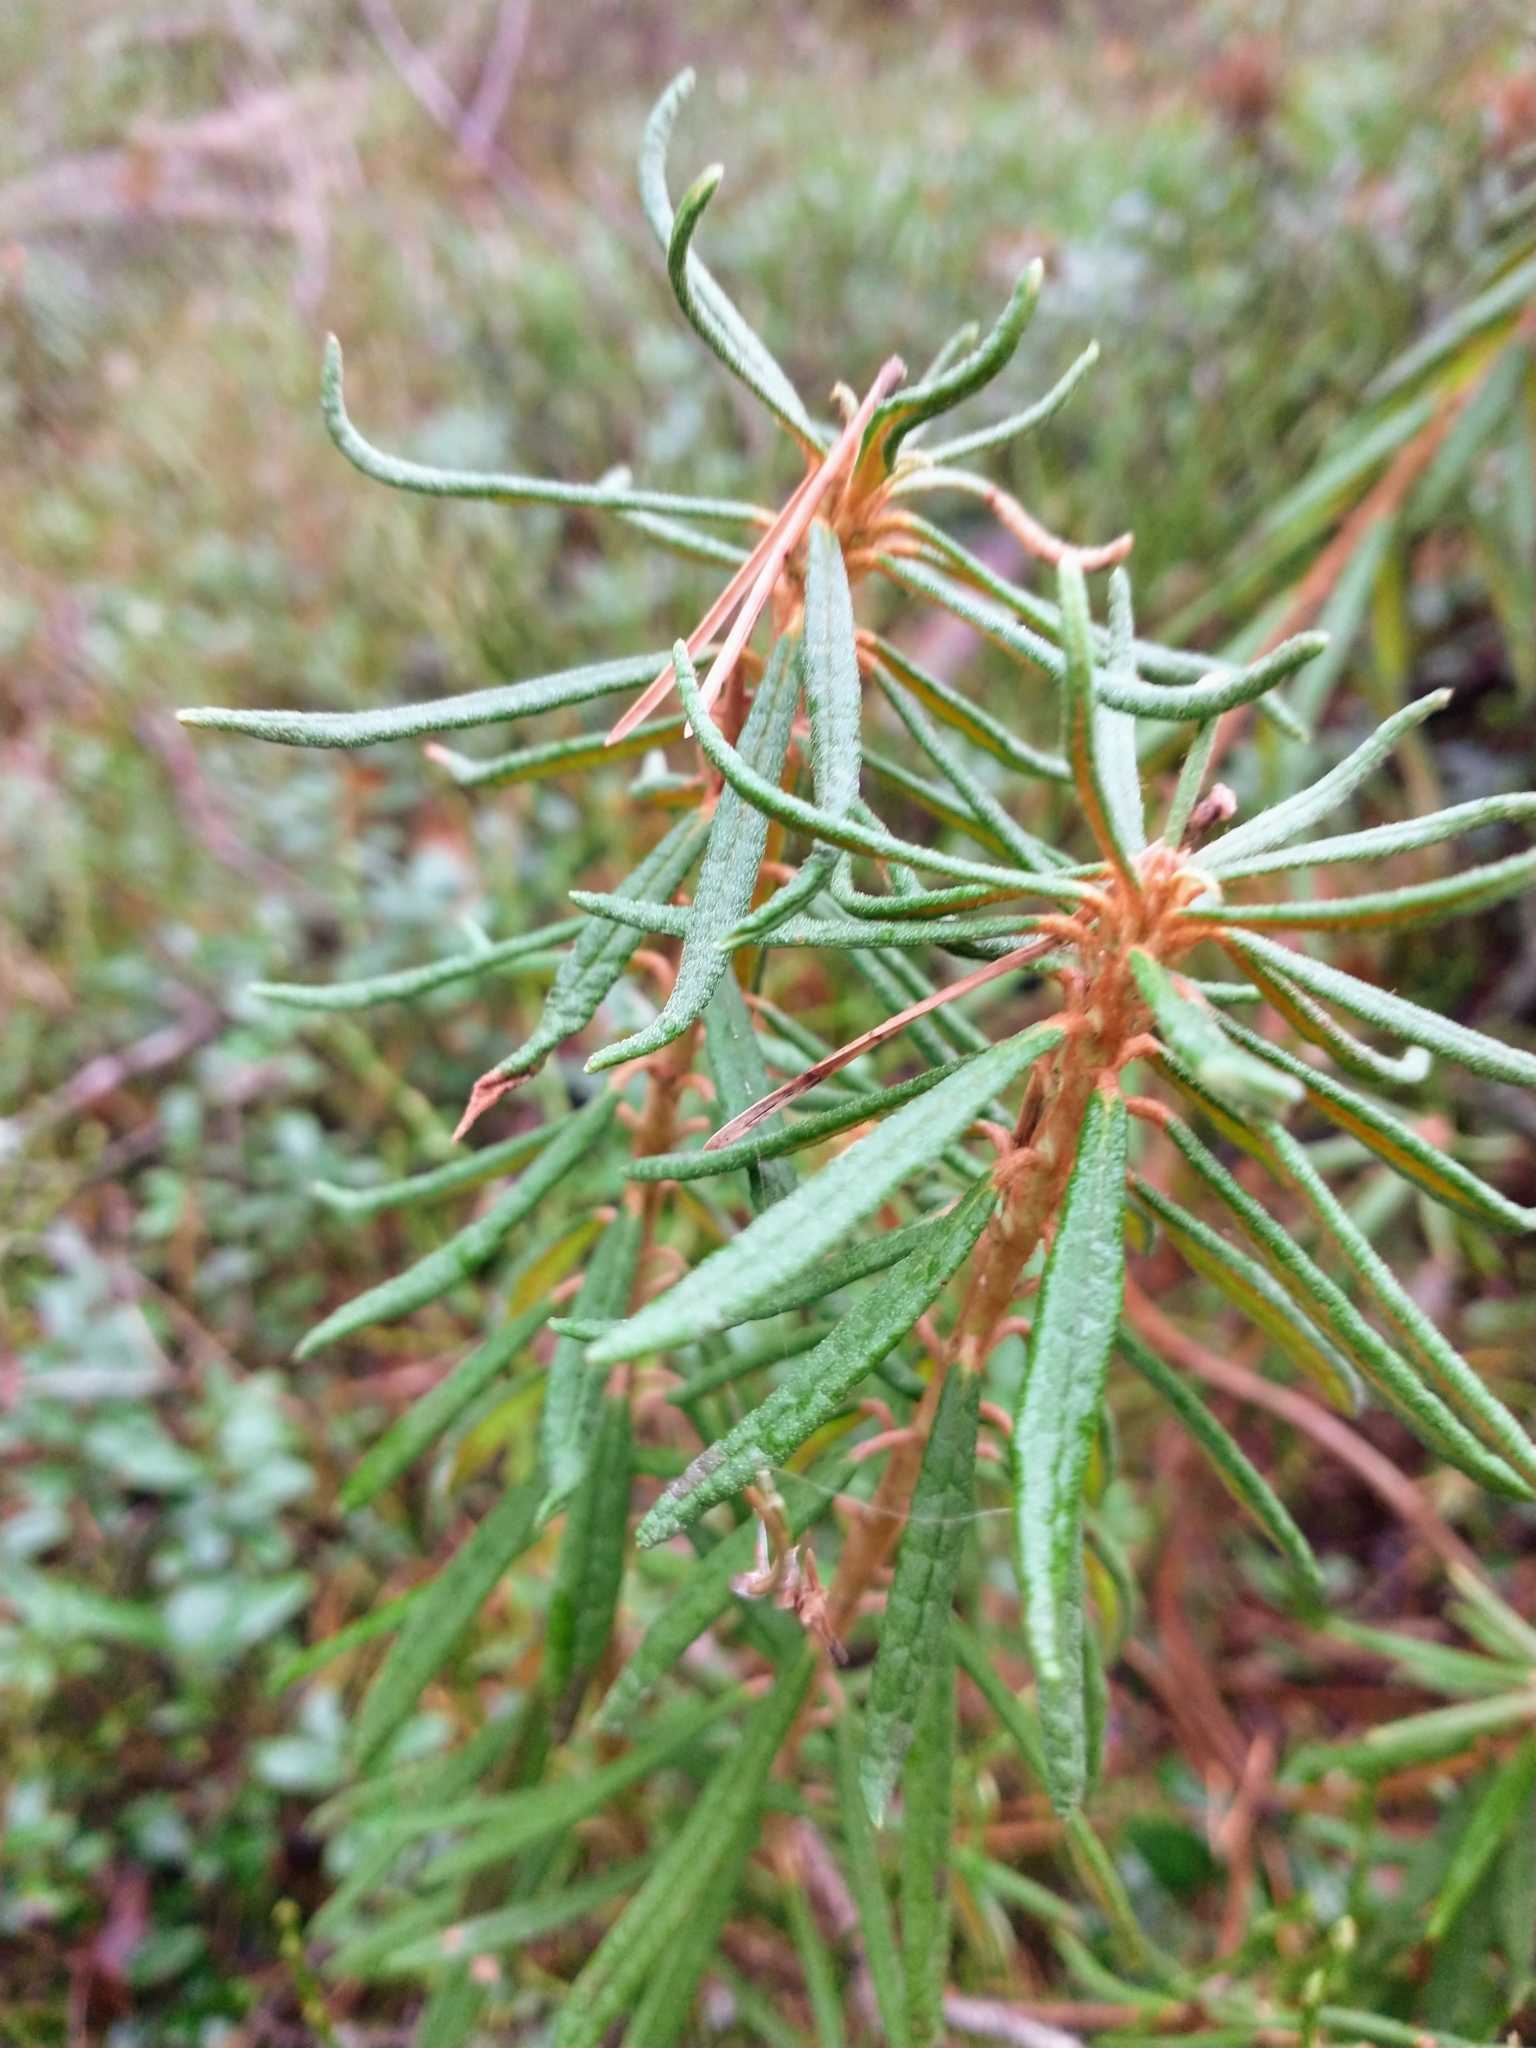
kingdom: Plantae
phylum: Tracheophyta
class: Magnoliopsida
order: Ericales
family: Ericaceae
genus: Rhododendron
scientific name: Rhododendron tomentosum
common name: Marsh labrador tea
